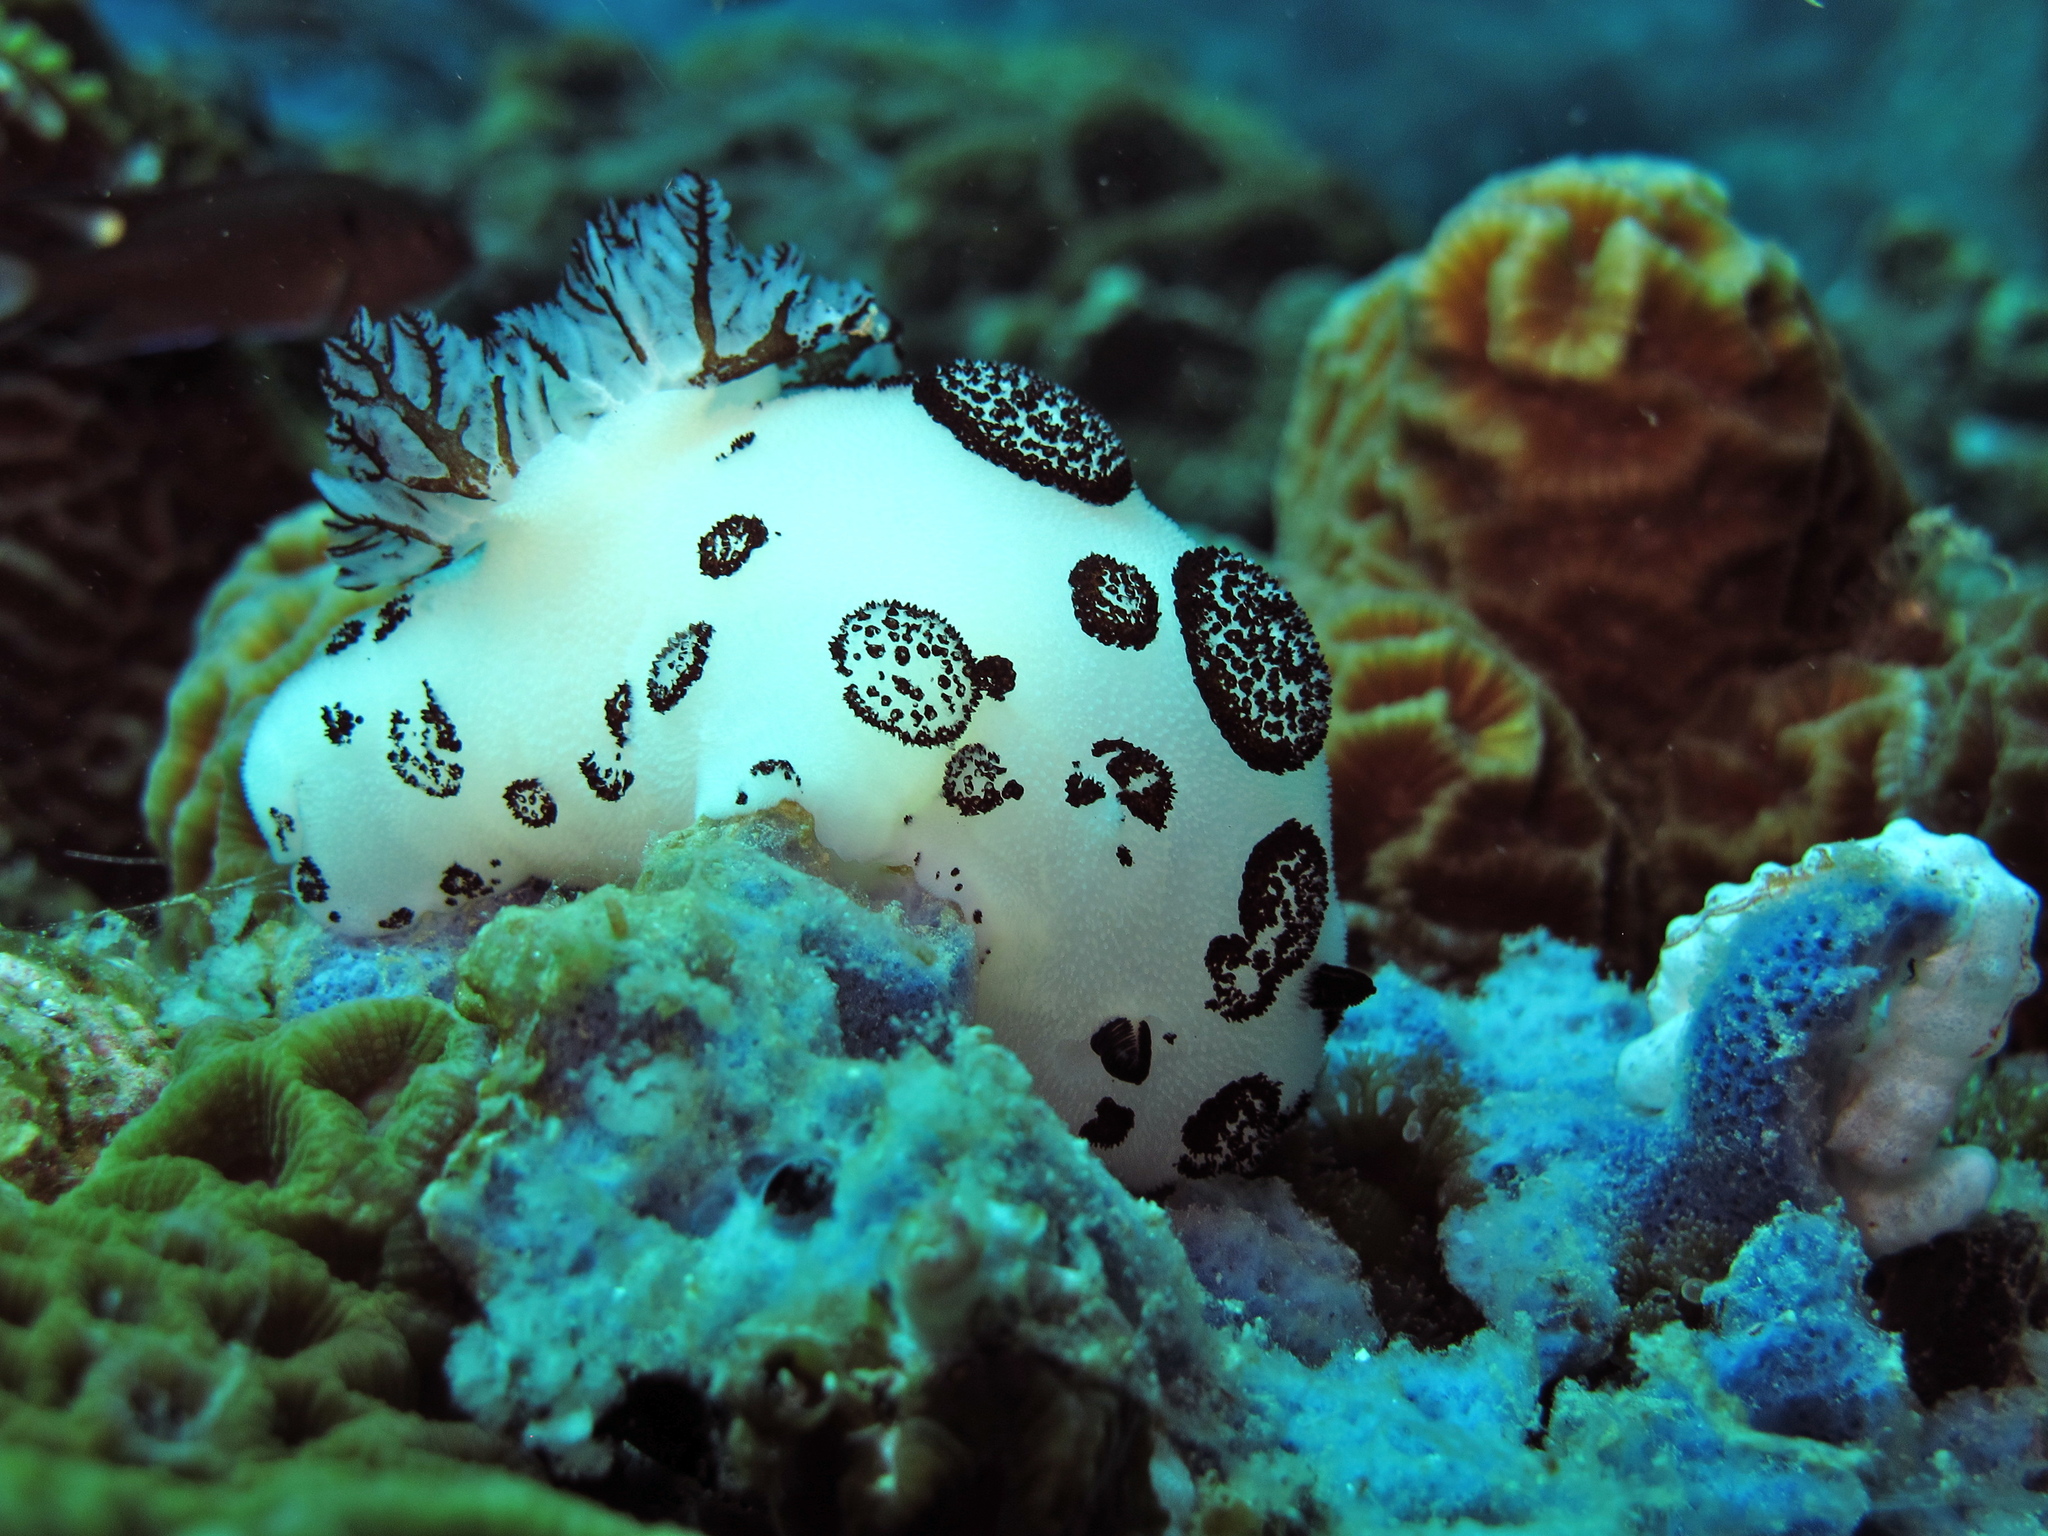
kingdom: Animalia
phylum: Mollusca
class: Gastropoda
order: Nudibranchia
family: Discodorididae
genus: Jorunna
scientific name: Jorunna funebris
